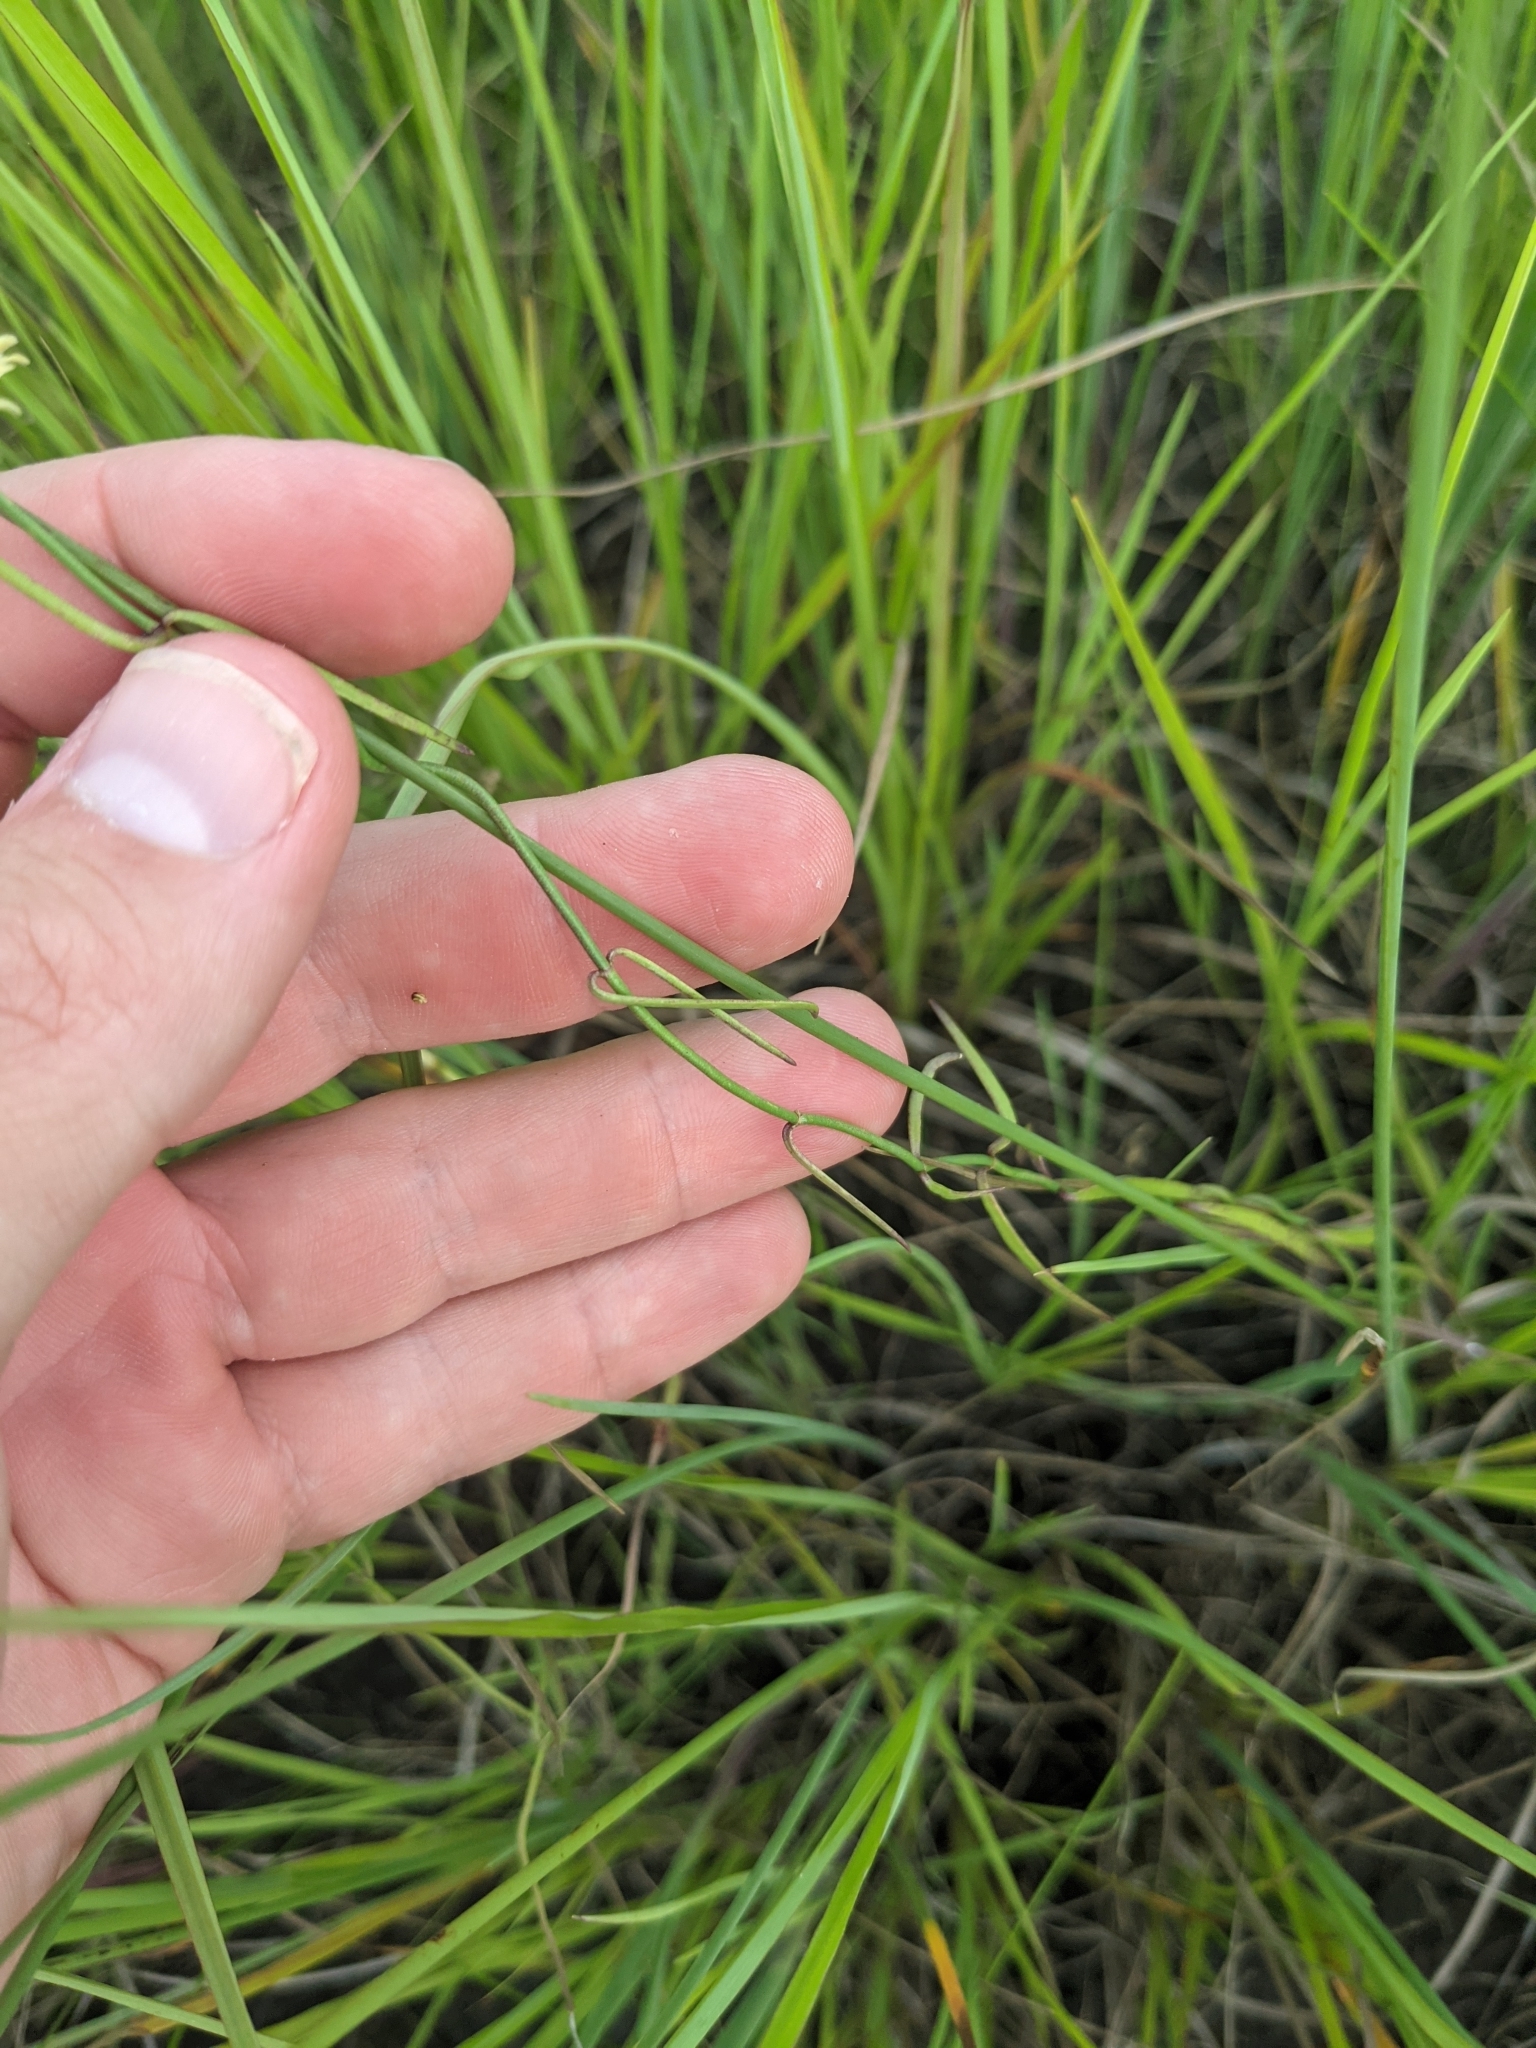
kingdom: Plantae
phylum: Tracheophyta
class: Magnoliopsida
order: Gentianales
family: Apocynaceae
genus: Pattalias
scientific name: Pattalias
